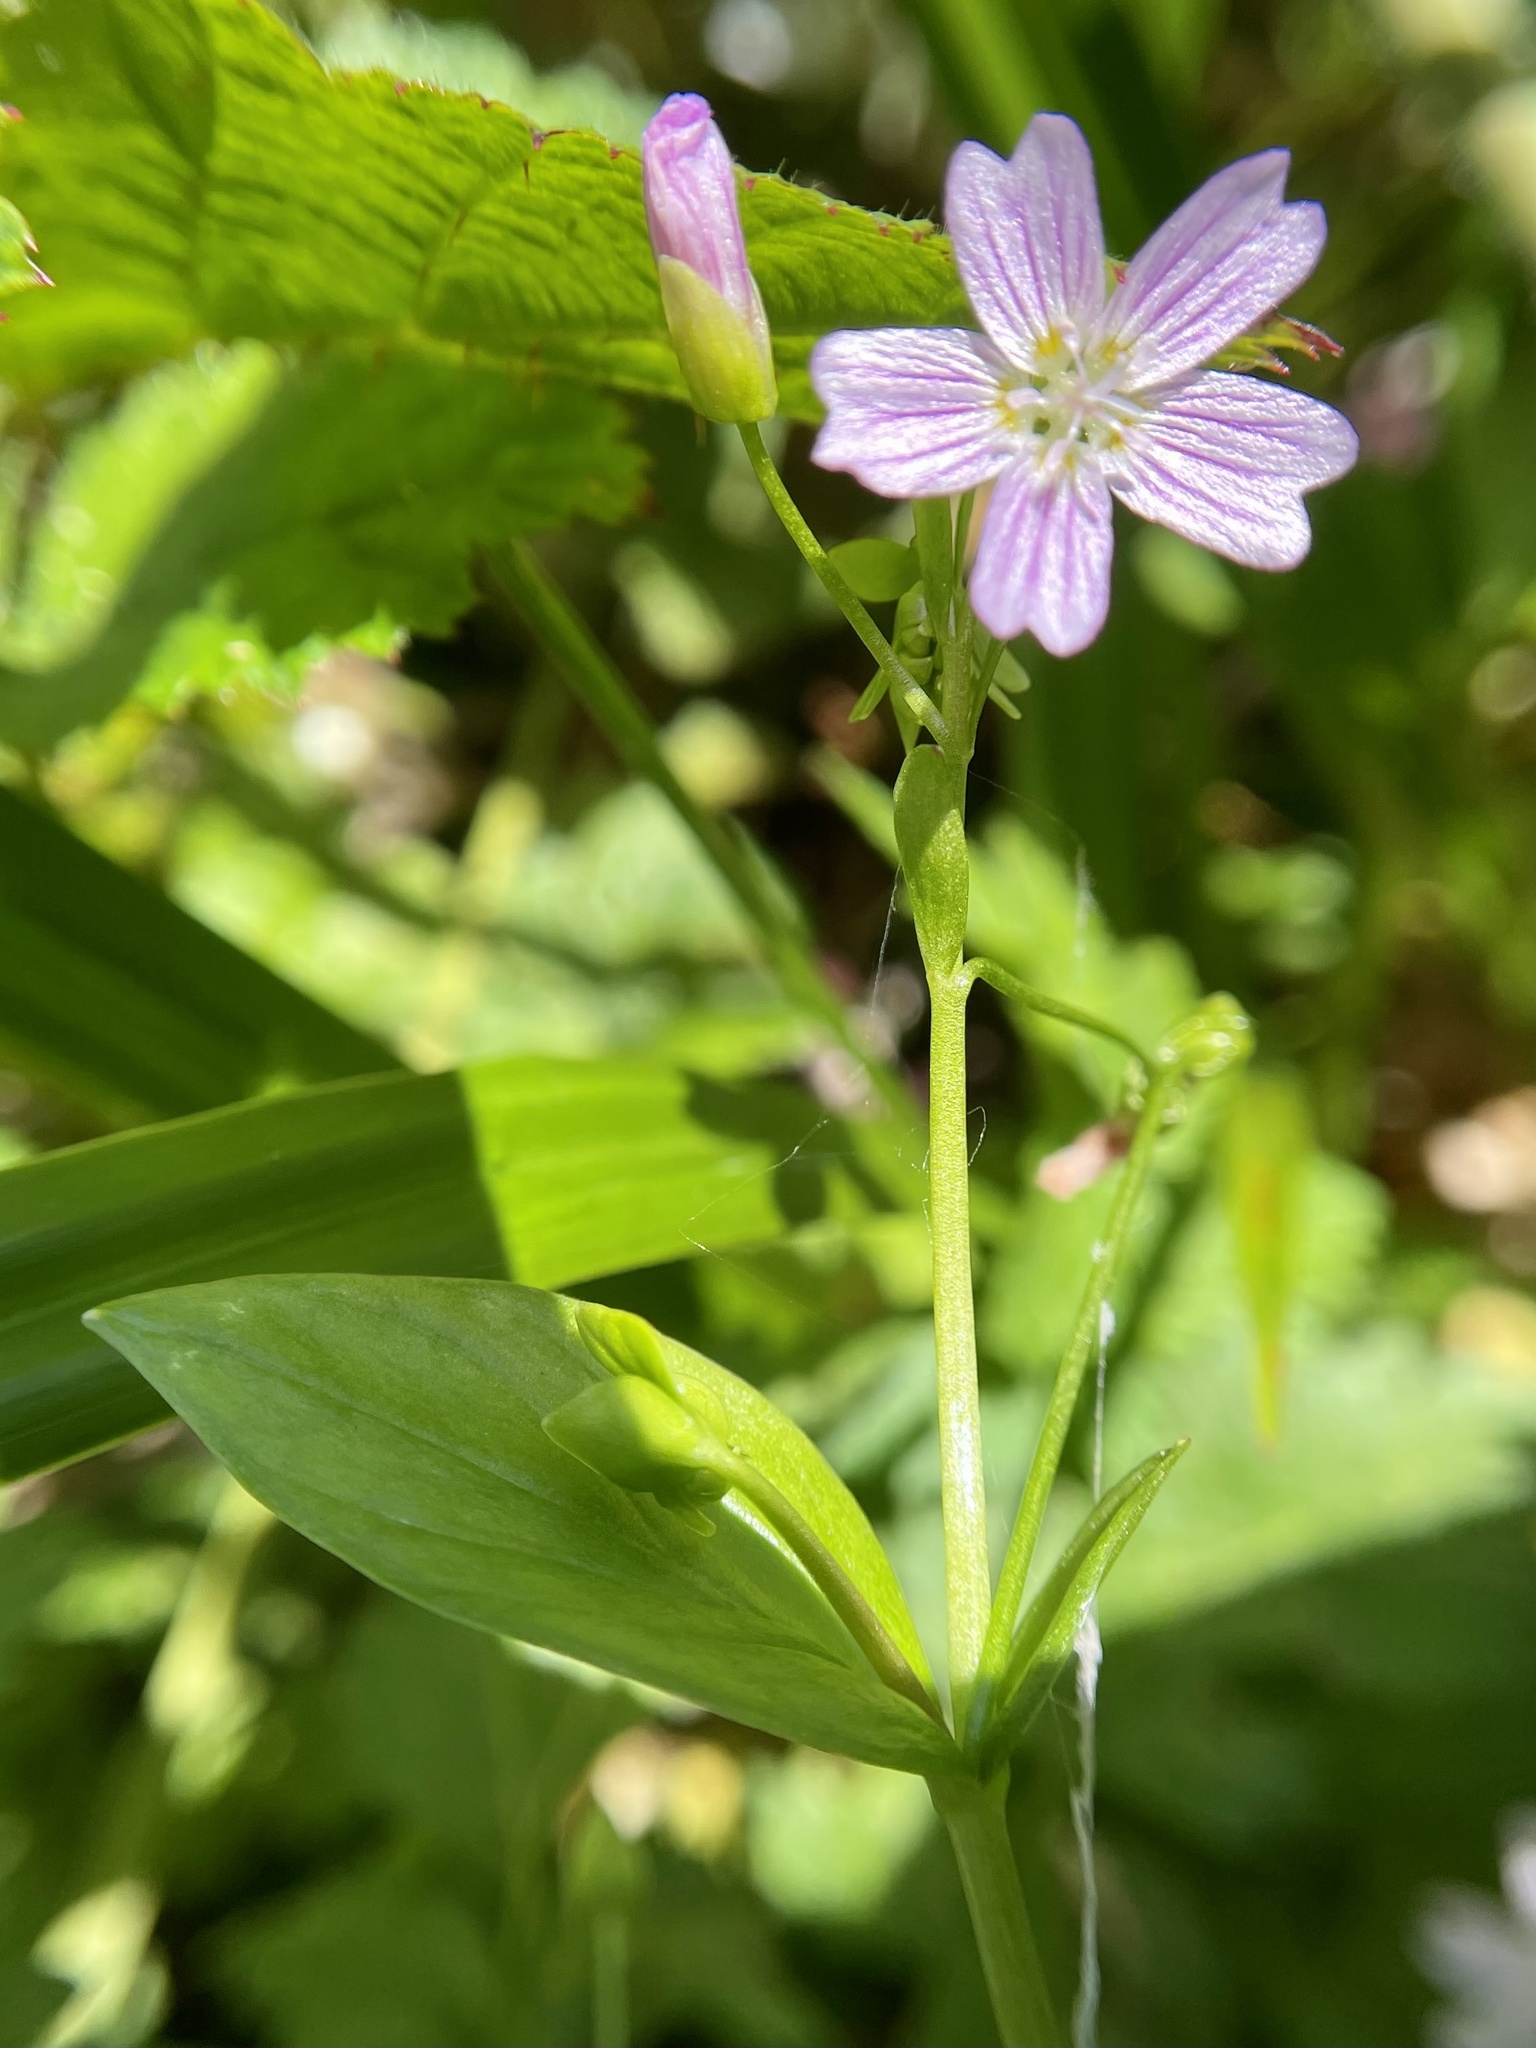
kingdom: Plantae
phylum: Tracheophyta
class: Magnoliopsida
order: Caryophyllales
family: Montiaceae
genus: Claytonia
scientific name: Claytonia sibirica
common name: Pink purslane
